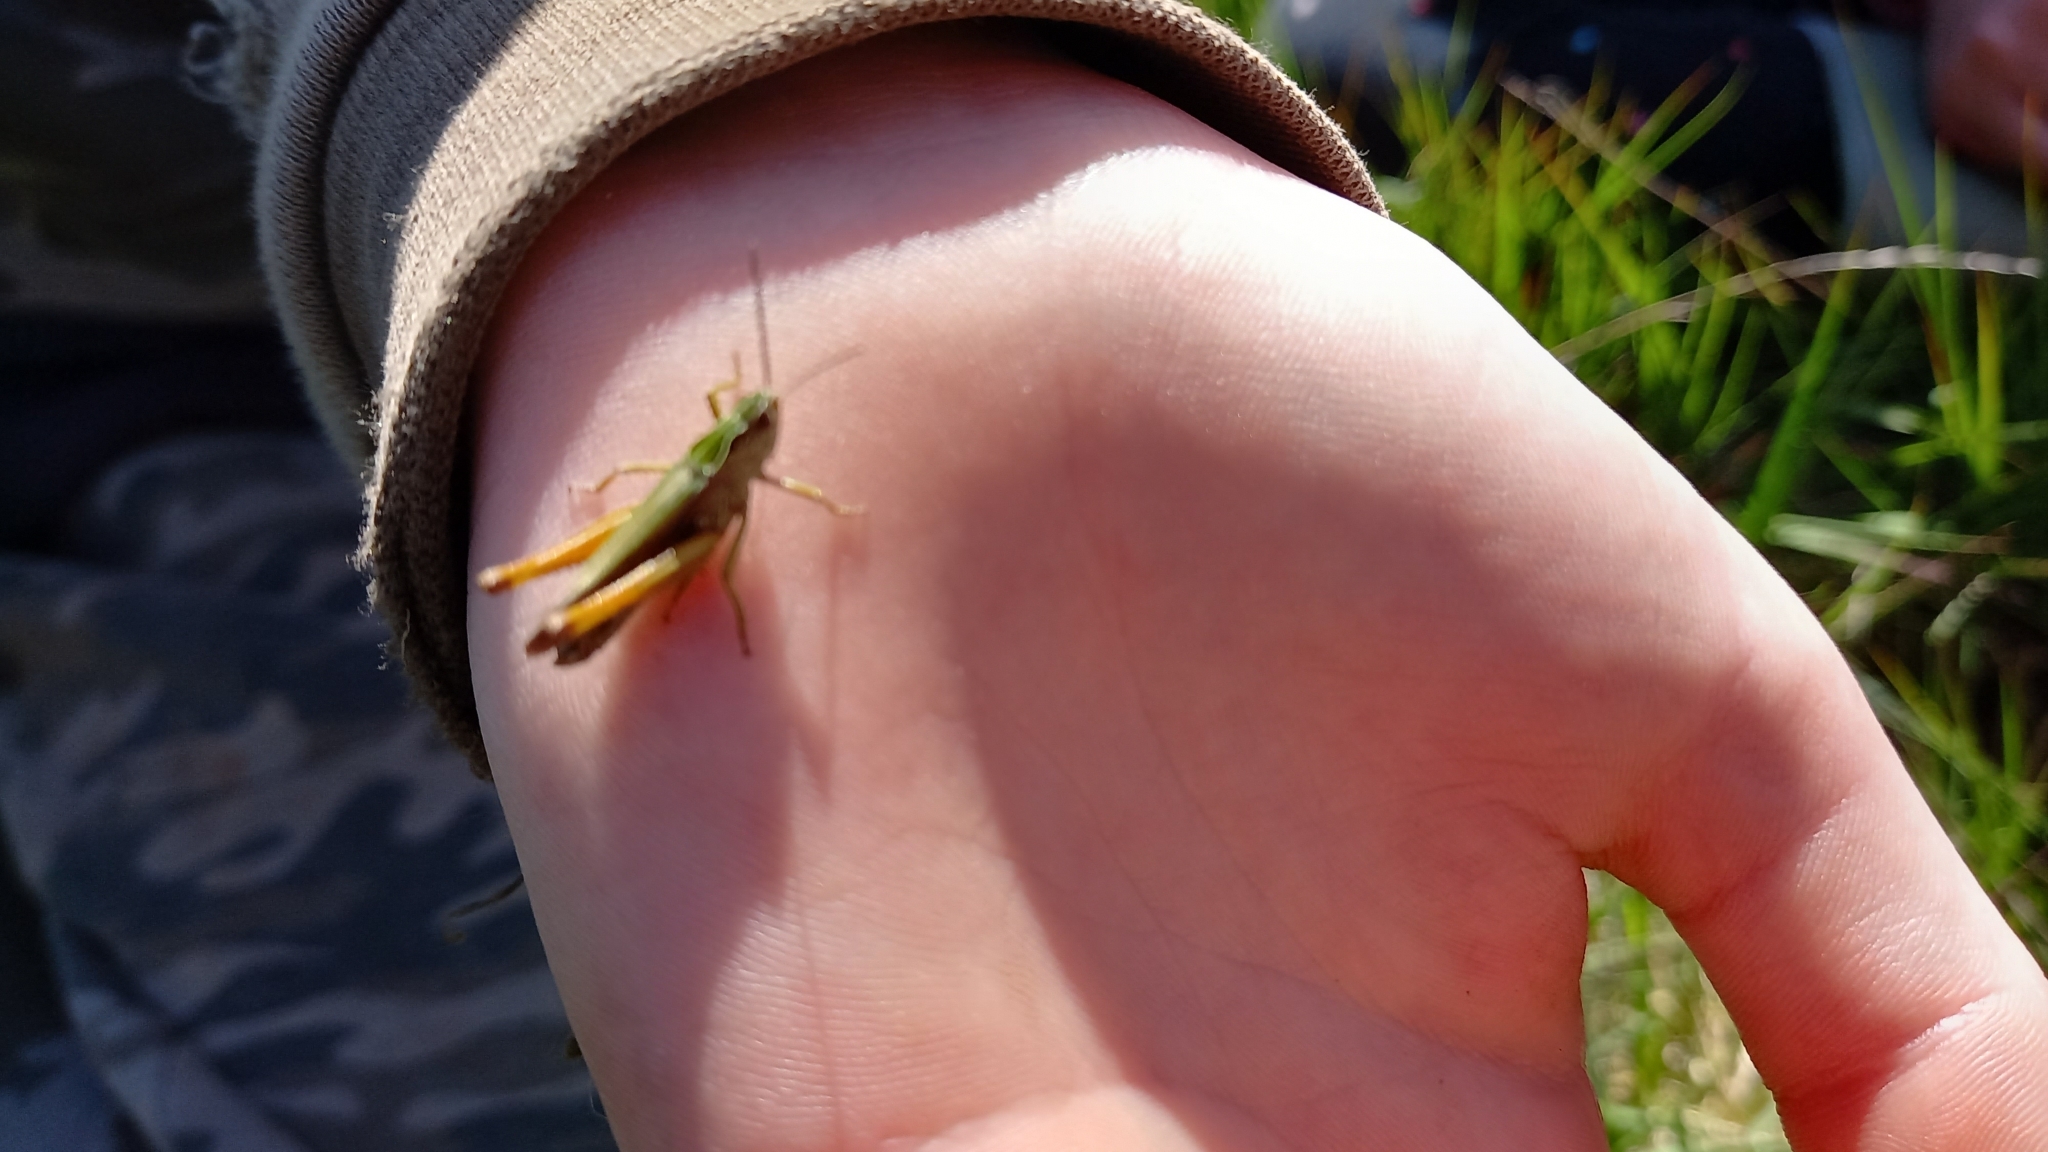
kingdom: Animalia
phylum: Arthropoda
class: Insecta
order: Orthoptera
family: Acrididae
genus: Omocestus
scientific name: Omocestus viridulus
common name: Common green grasshopper
